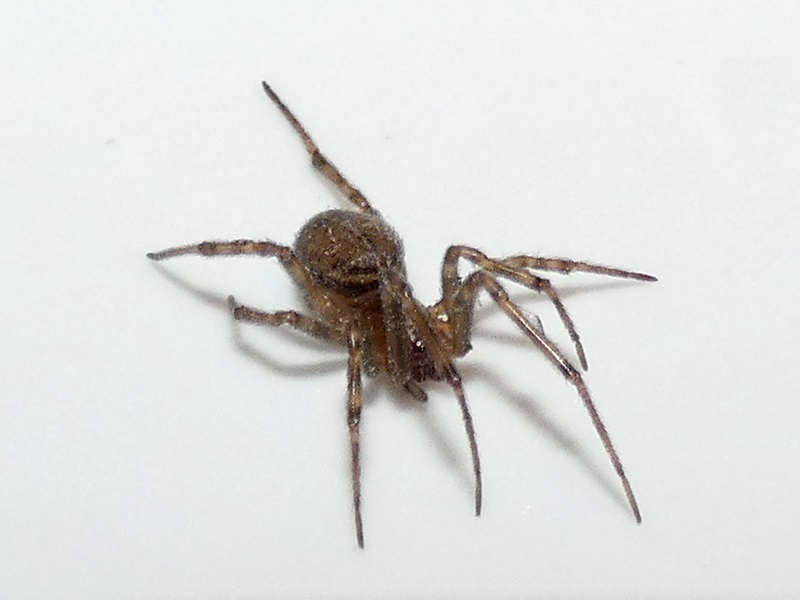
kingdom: Animalia
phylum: Arthropoda
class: Arachnida
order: Araneae
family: Theridiidae
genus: Steatoda
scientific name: Steatoda castanea
